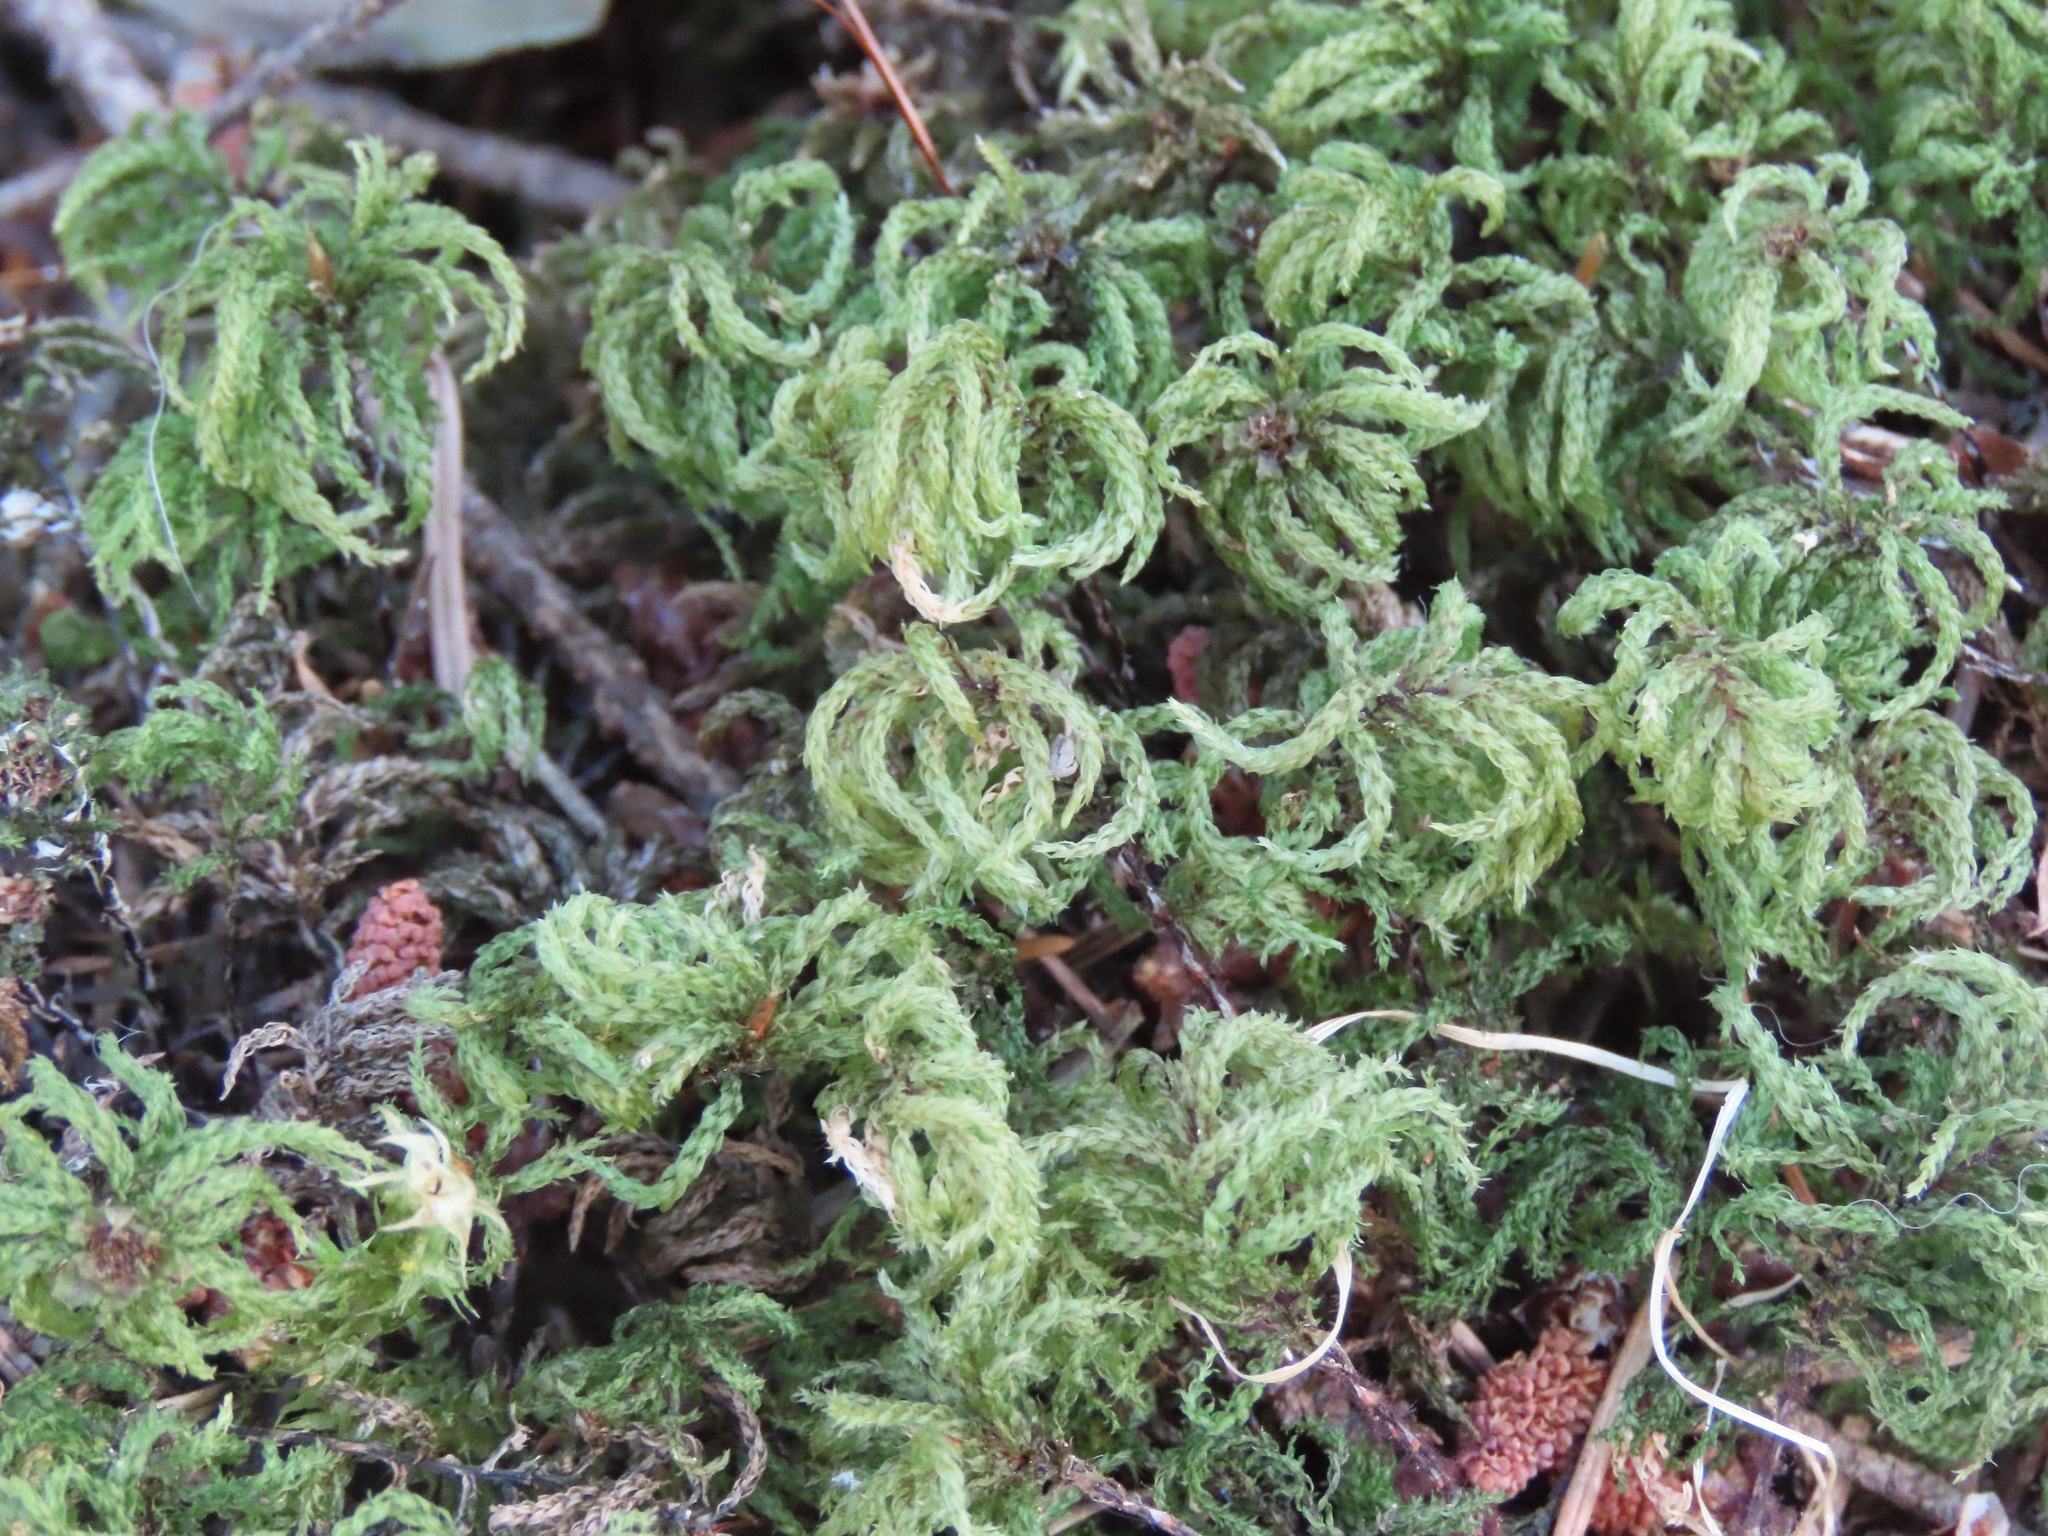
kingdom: Plantae
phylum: Bryophyta
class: Bryopsida
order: Bryales
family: Mniaceae
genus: Leucolepis
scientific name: Leucolepis acanthoneura
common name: Leucolepis umbrella moss
